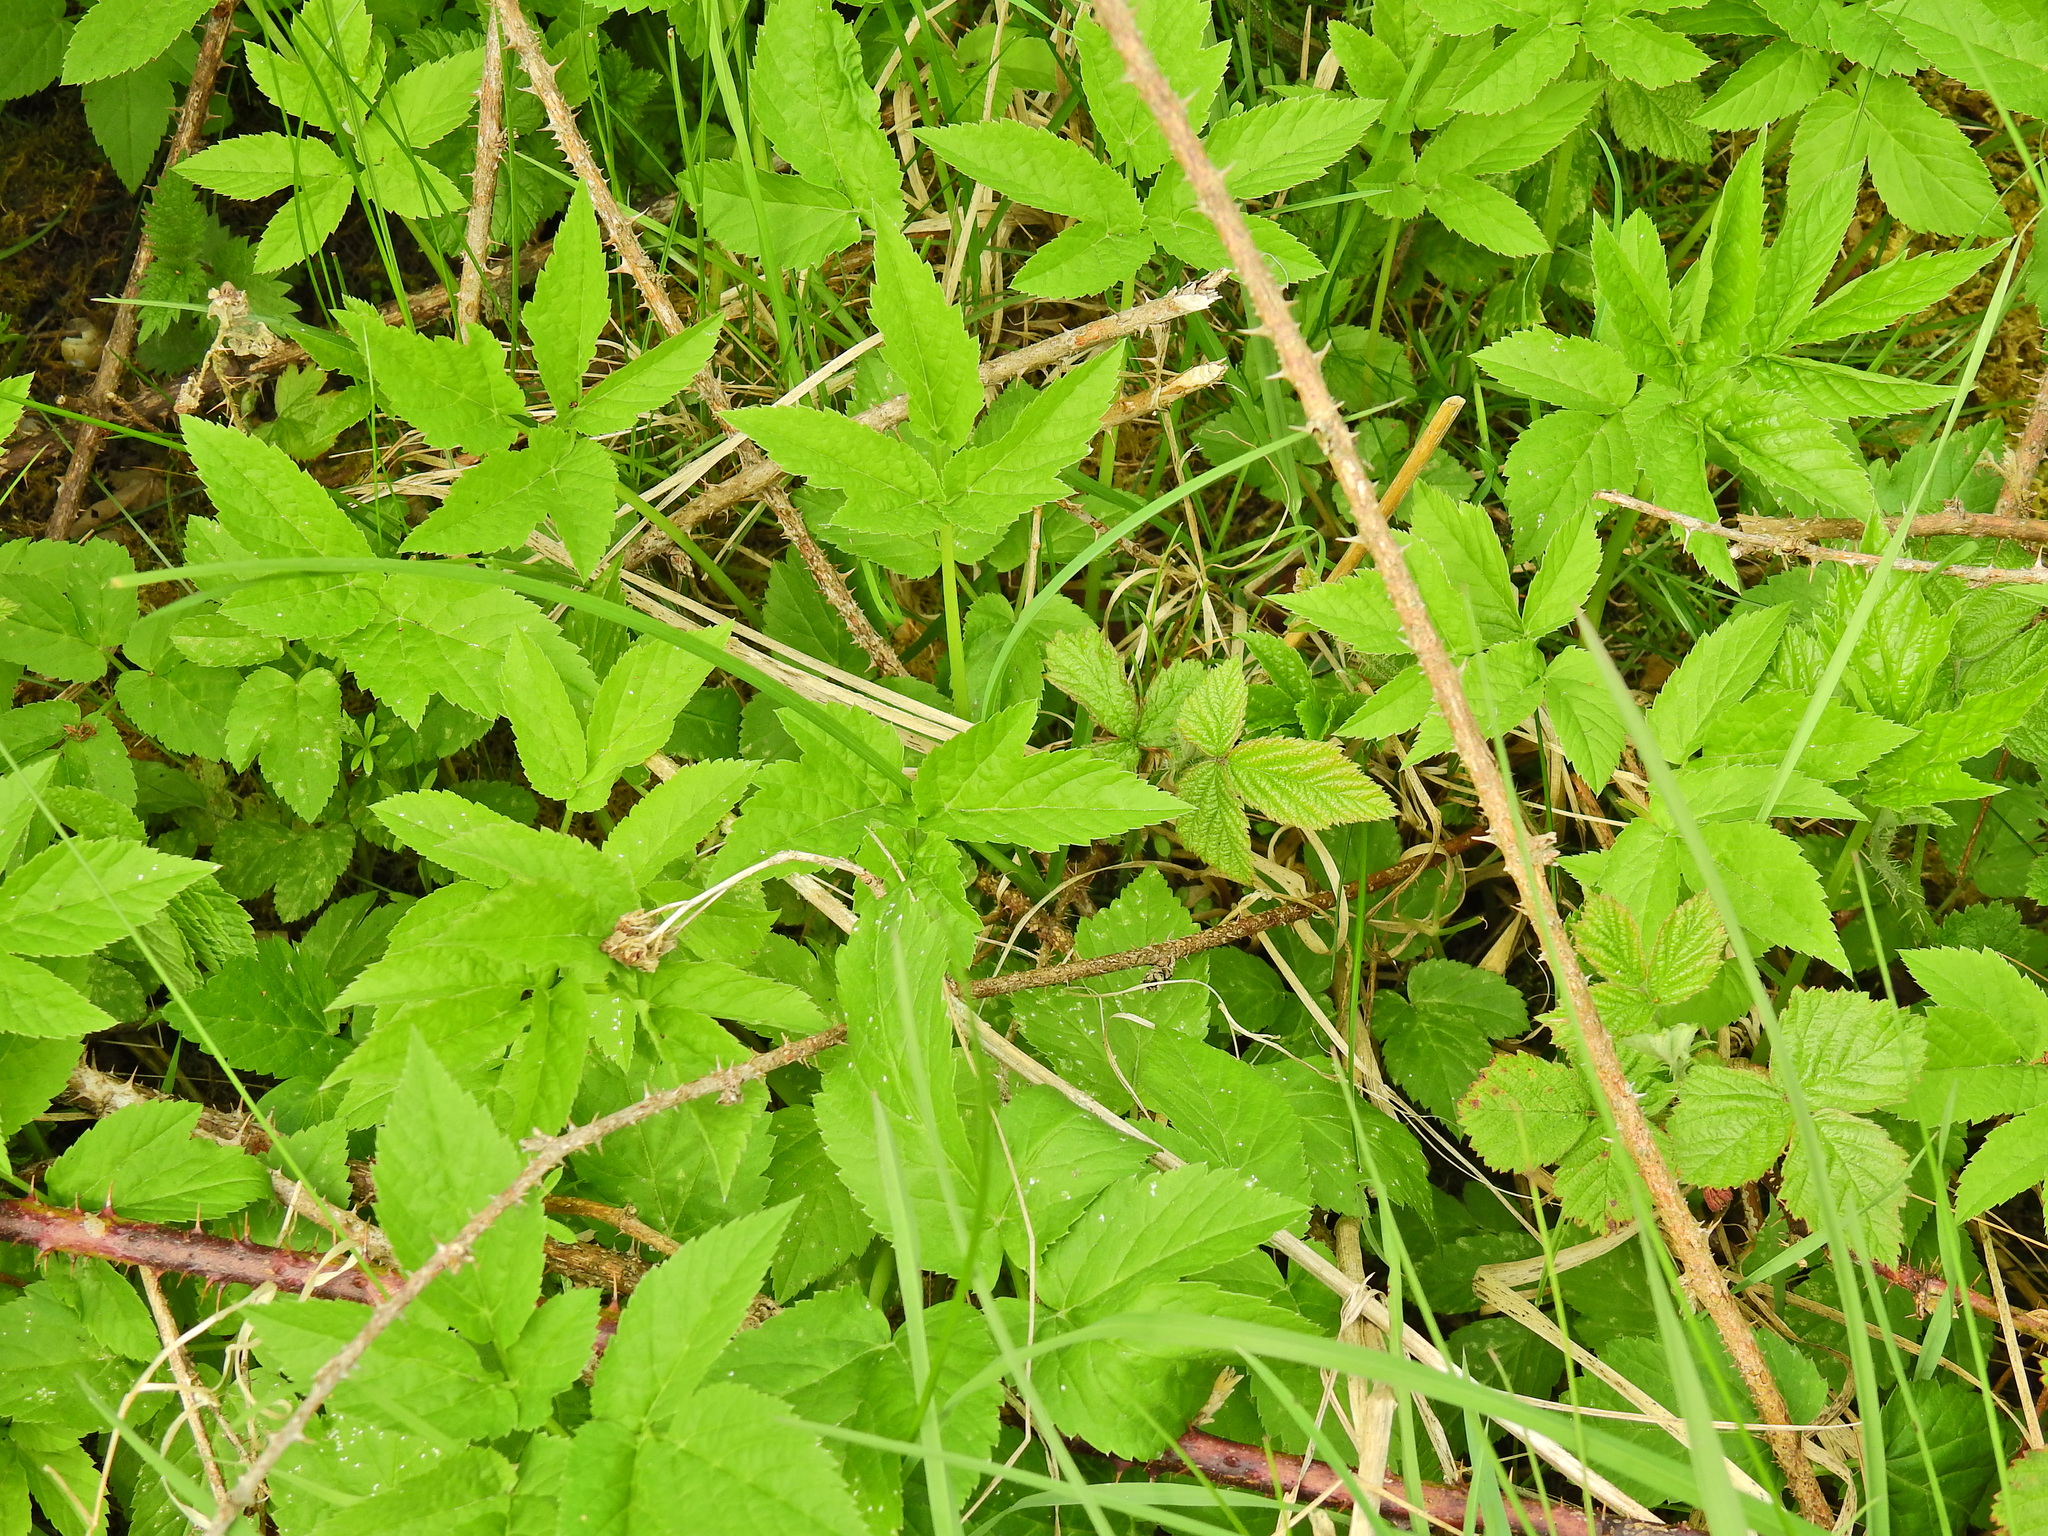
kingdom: Plantae
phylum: Tracheophyta
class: Magnoliopsida
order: Apiales
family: Apiaceae
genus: Aegopodium
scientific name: Aegopodium podagraria
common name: Ground-elder
